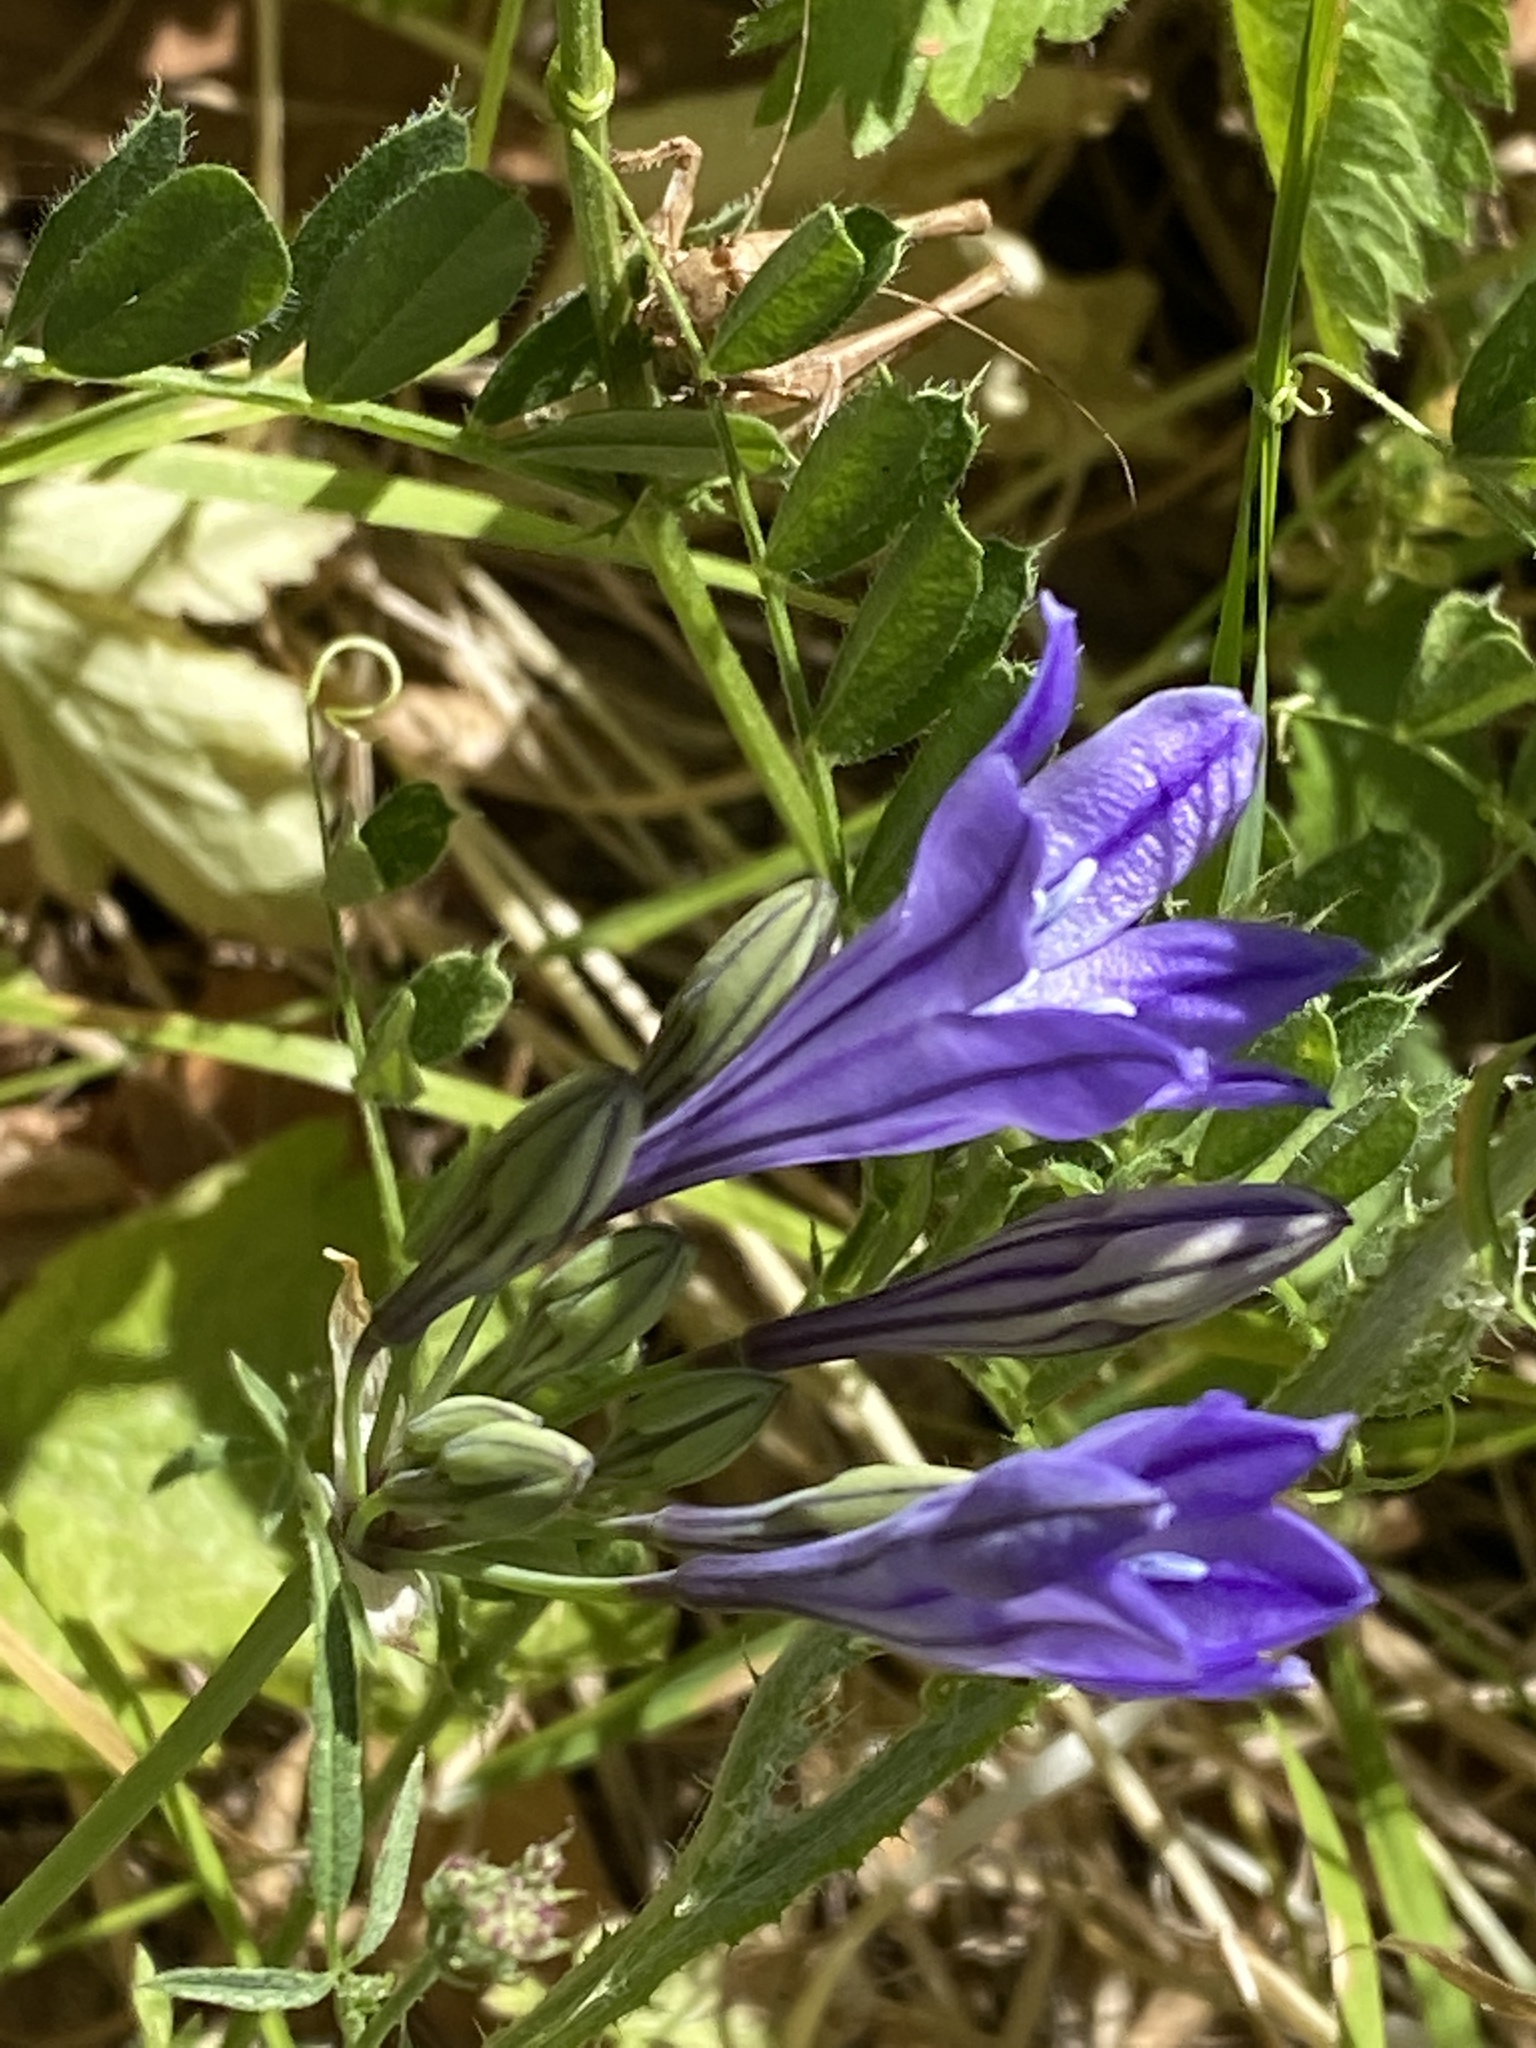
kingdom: Plantae
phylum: Tracheophyta
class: Liliopsida
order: Asparagales
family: Asparagaceae
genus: Triteleia
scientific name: Triteleia laxa
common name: Triplet-lily
